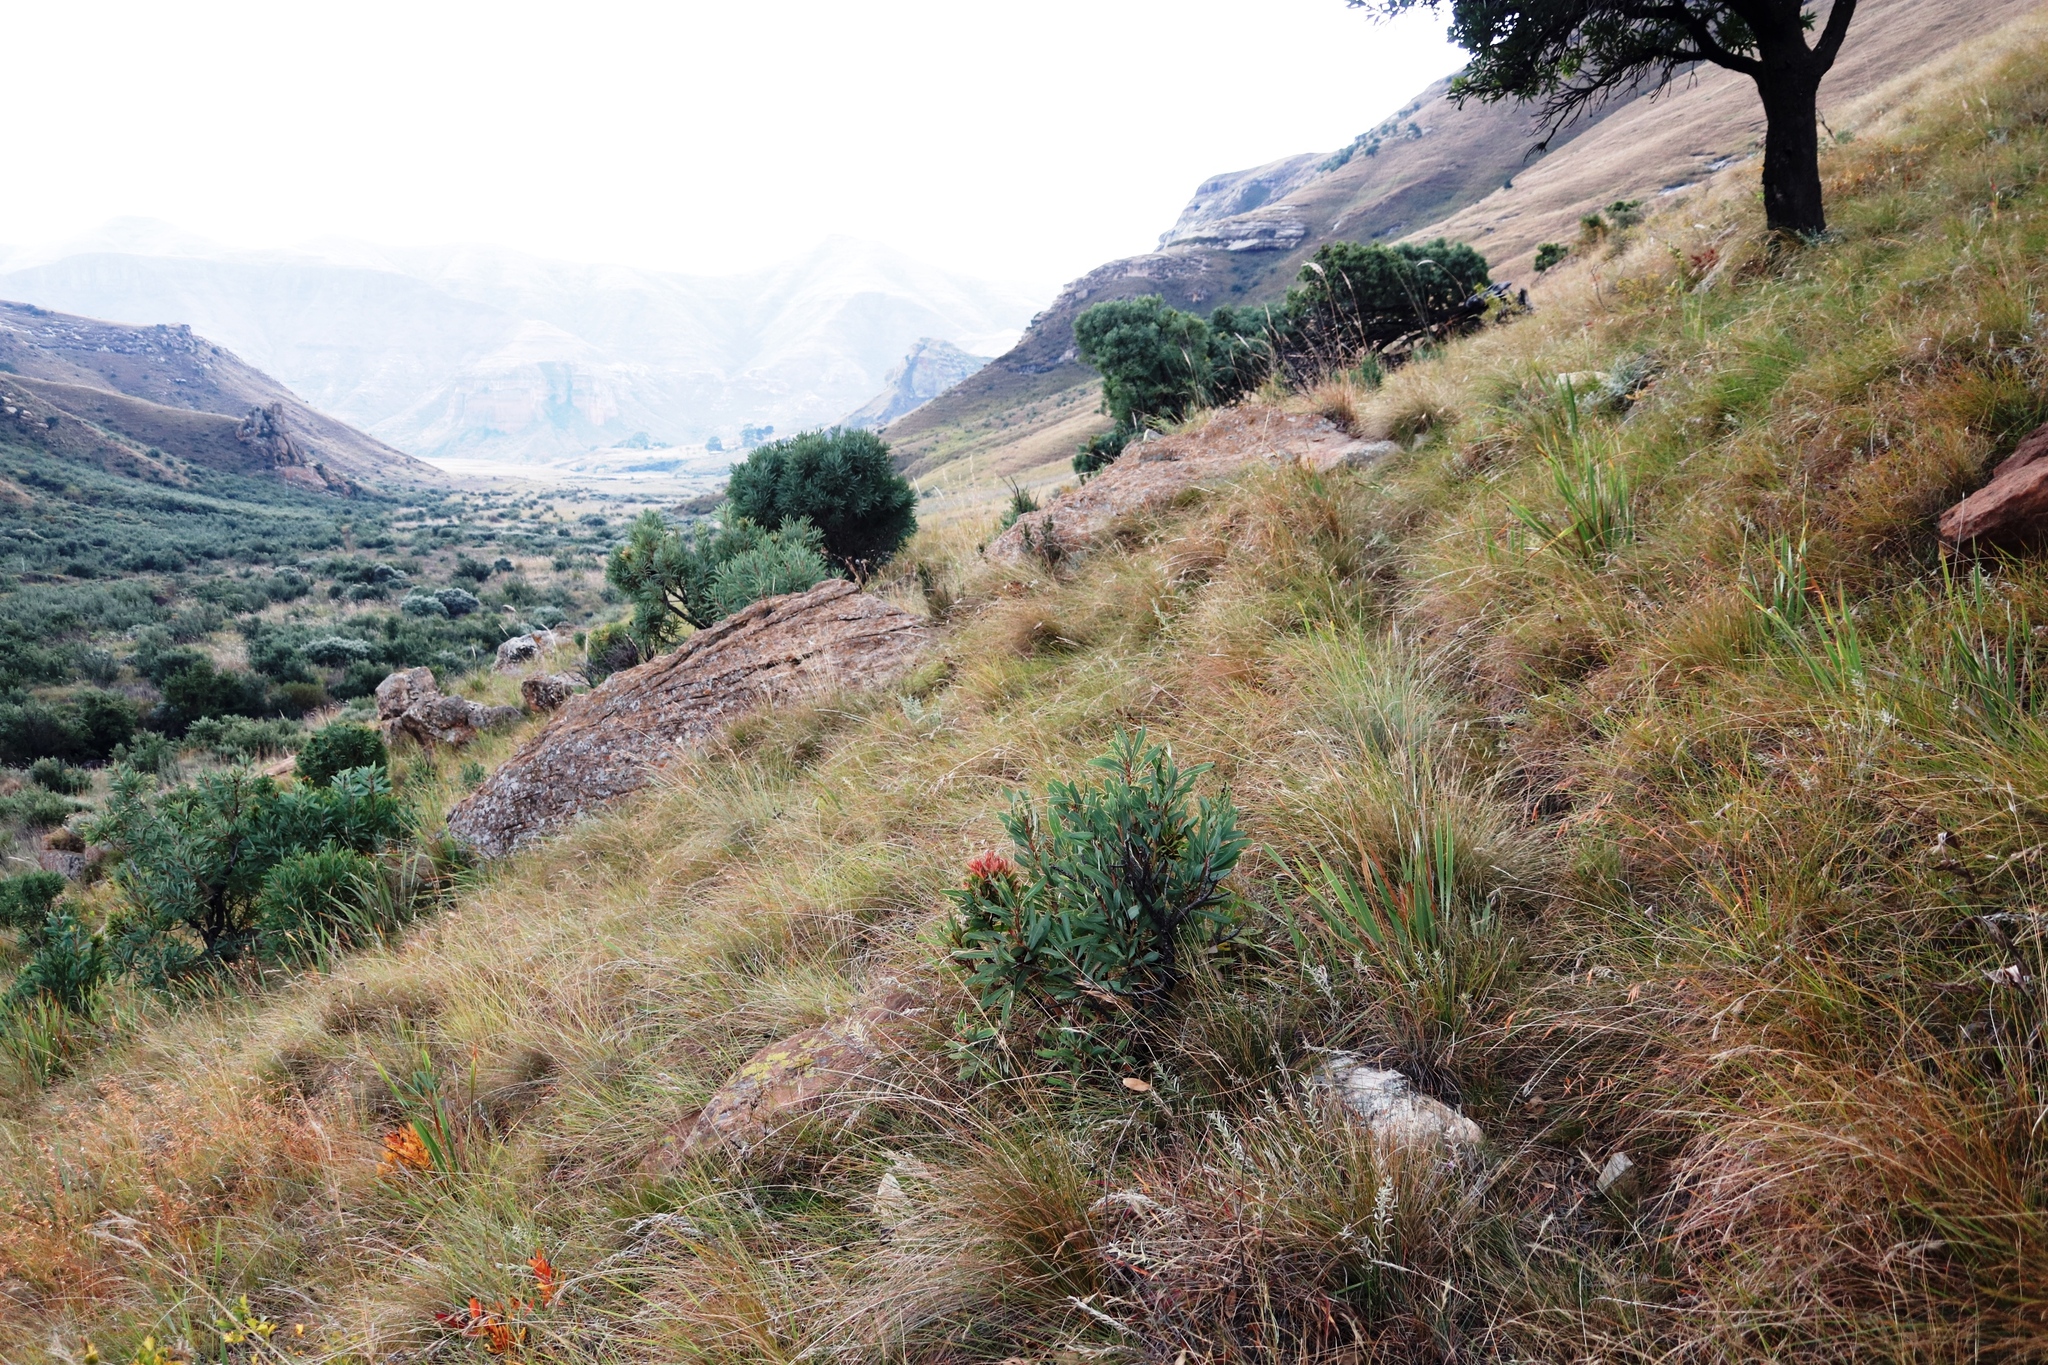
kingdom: Plantae
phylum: Tracheophyta
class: Magnoliopsida
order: Proteales
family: Proteaceae
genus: Protea
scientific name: Protea caffra
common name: Common sugarbush
